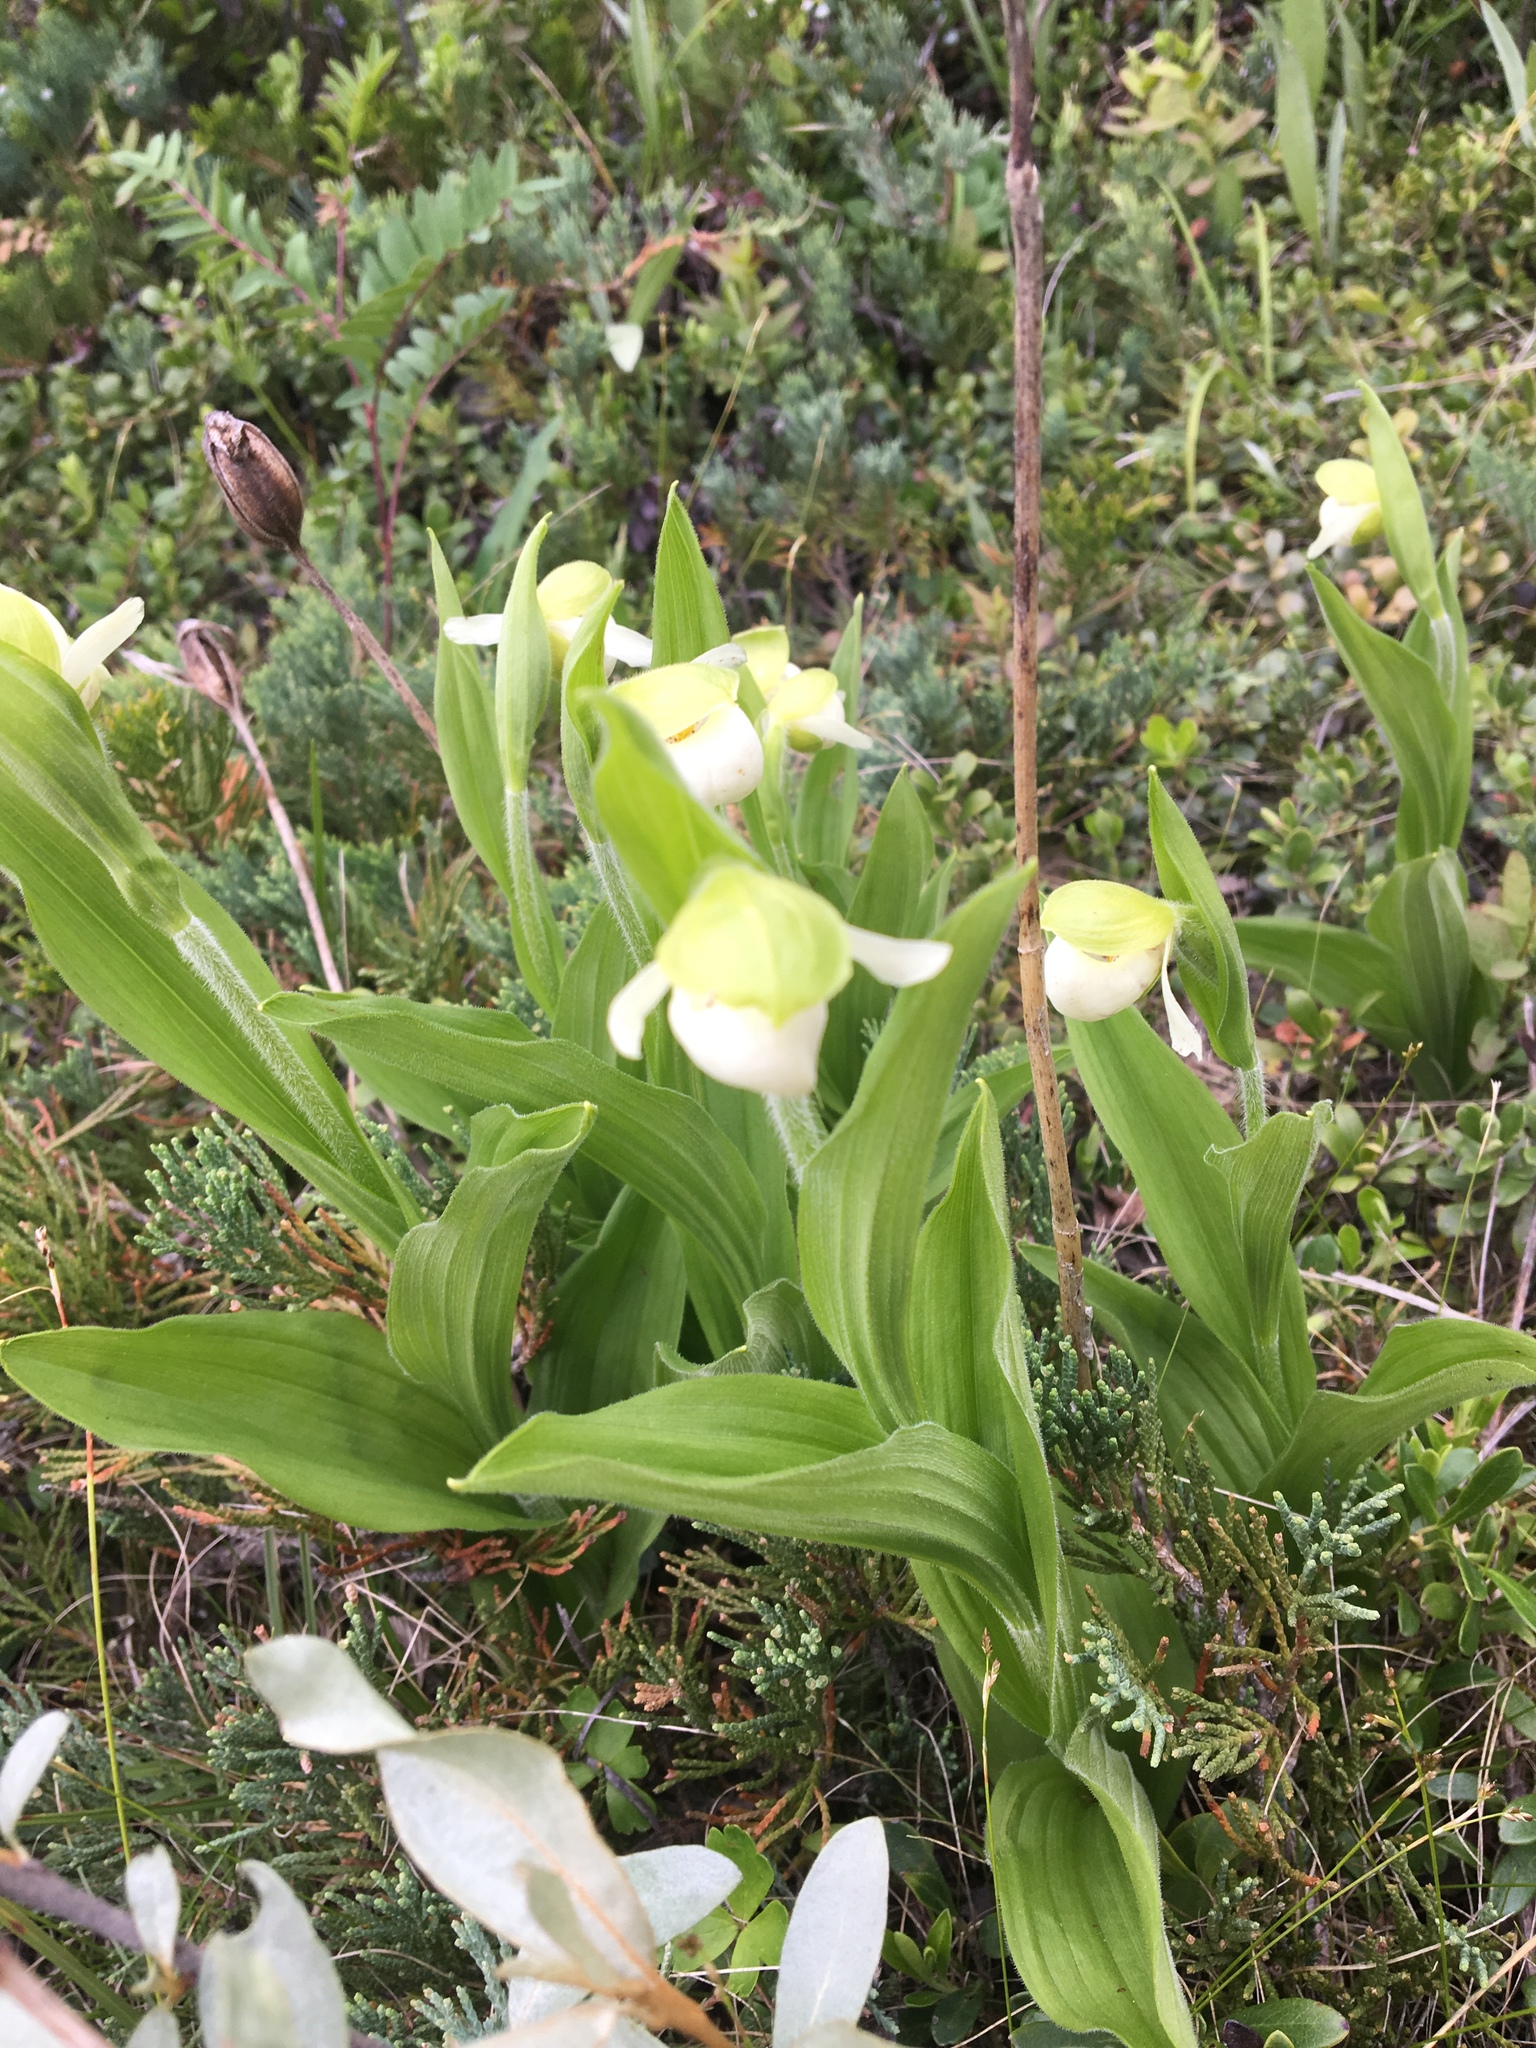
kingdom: Plantae
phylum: Tracheophyta
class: Liliopsida
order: Asparagales
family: Orchidaceae
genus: Cypripedium
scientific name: Cypripedium passerinum
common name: Sparrow's-egg lady's-slipper
